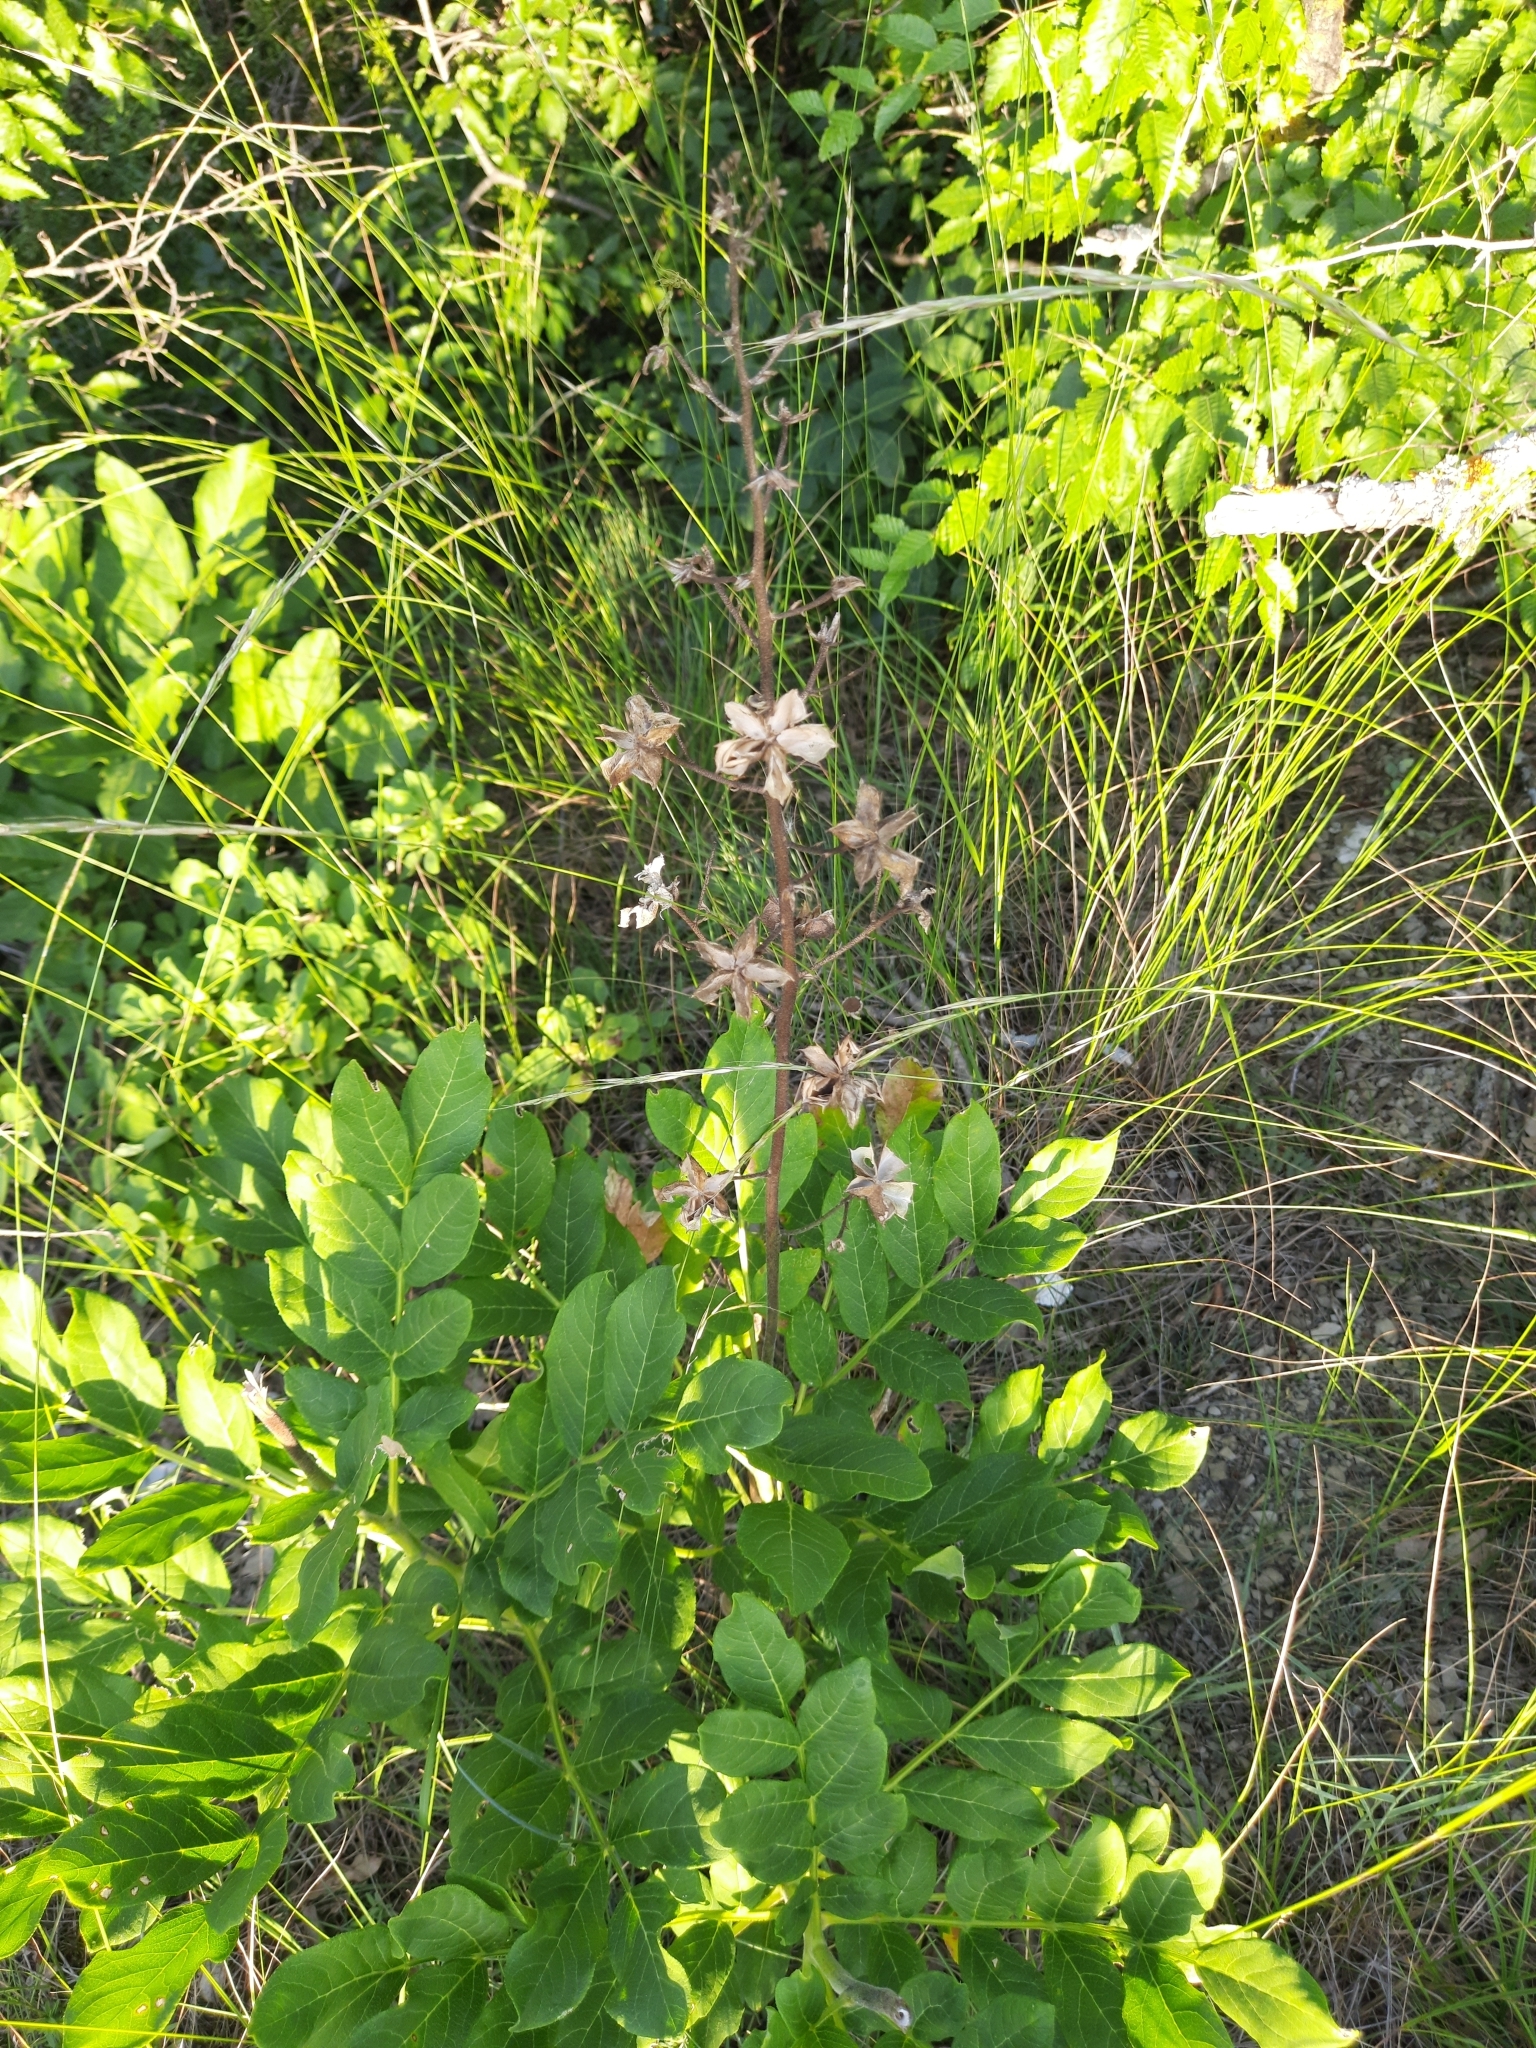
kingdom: Plantae
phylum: Tracheophyta
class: Magnoliopsida
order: Sapindales
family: Rutaceae
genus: Dictamnus
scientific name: Dictamnus albus
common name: Gasplant
